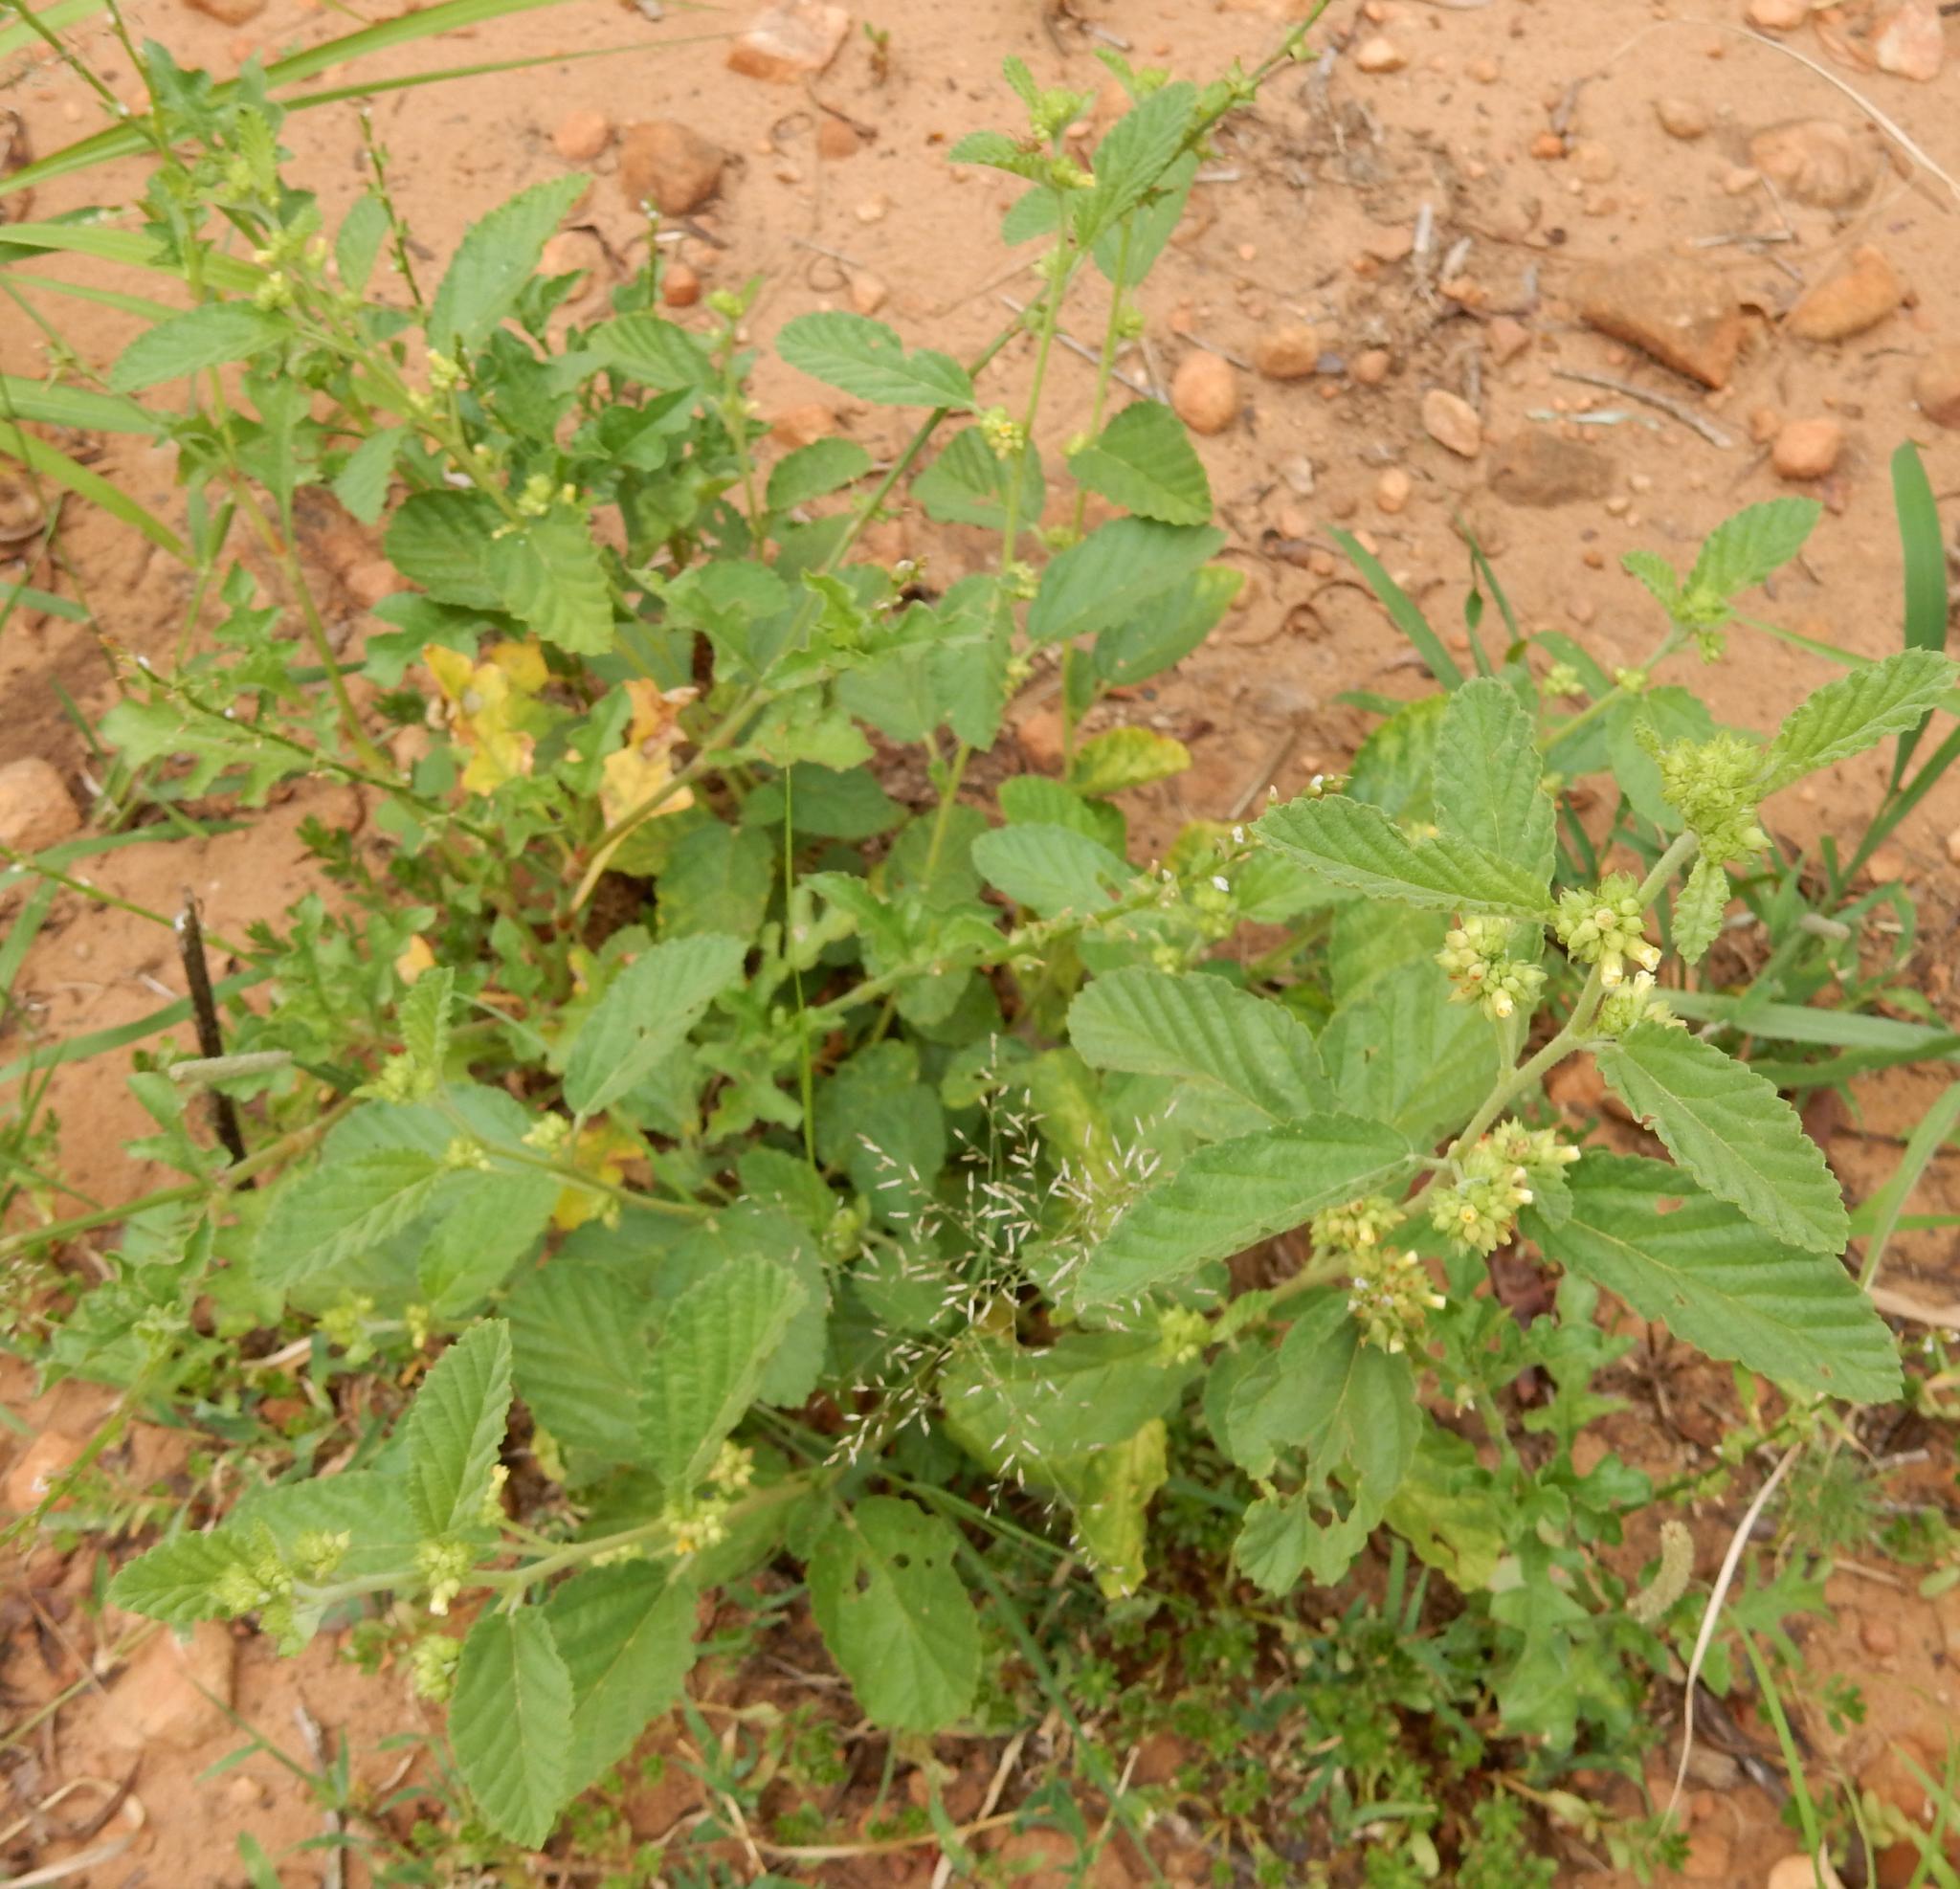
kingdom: Plantae
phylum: Tracheophyta
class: Magnoliopsida
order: Malvales
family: Malvaceae
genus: Waltheria
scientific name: Waltheria indica
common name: Leather-coat
